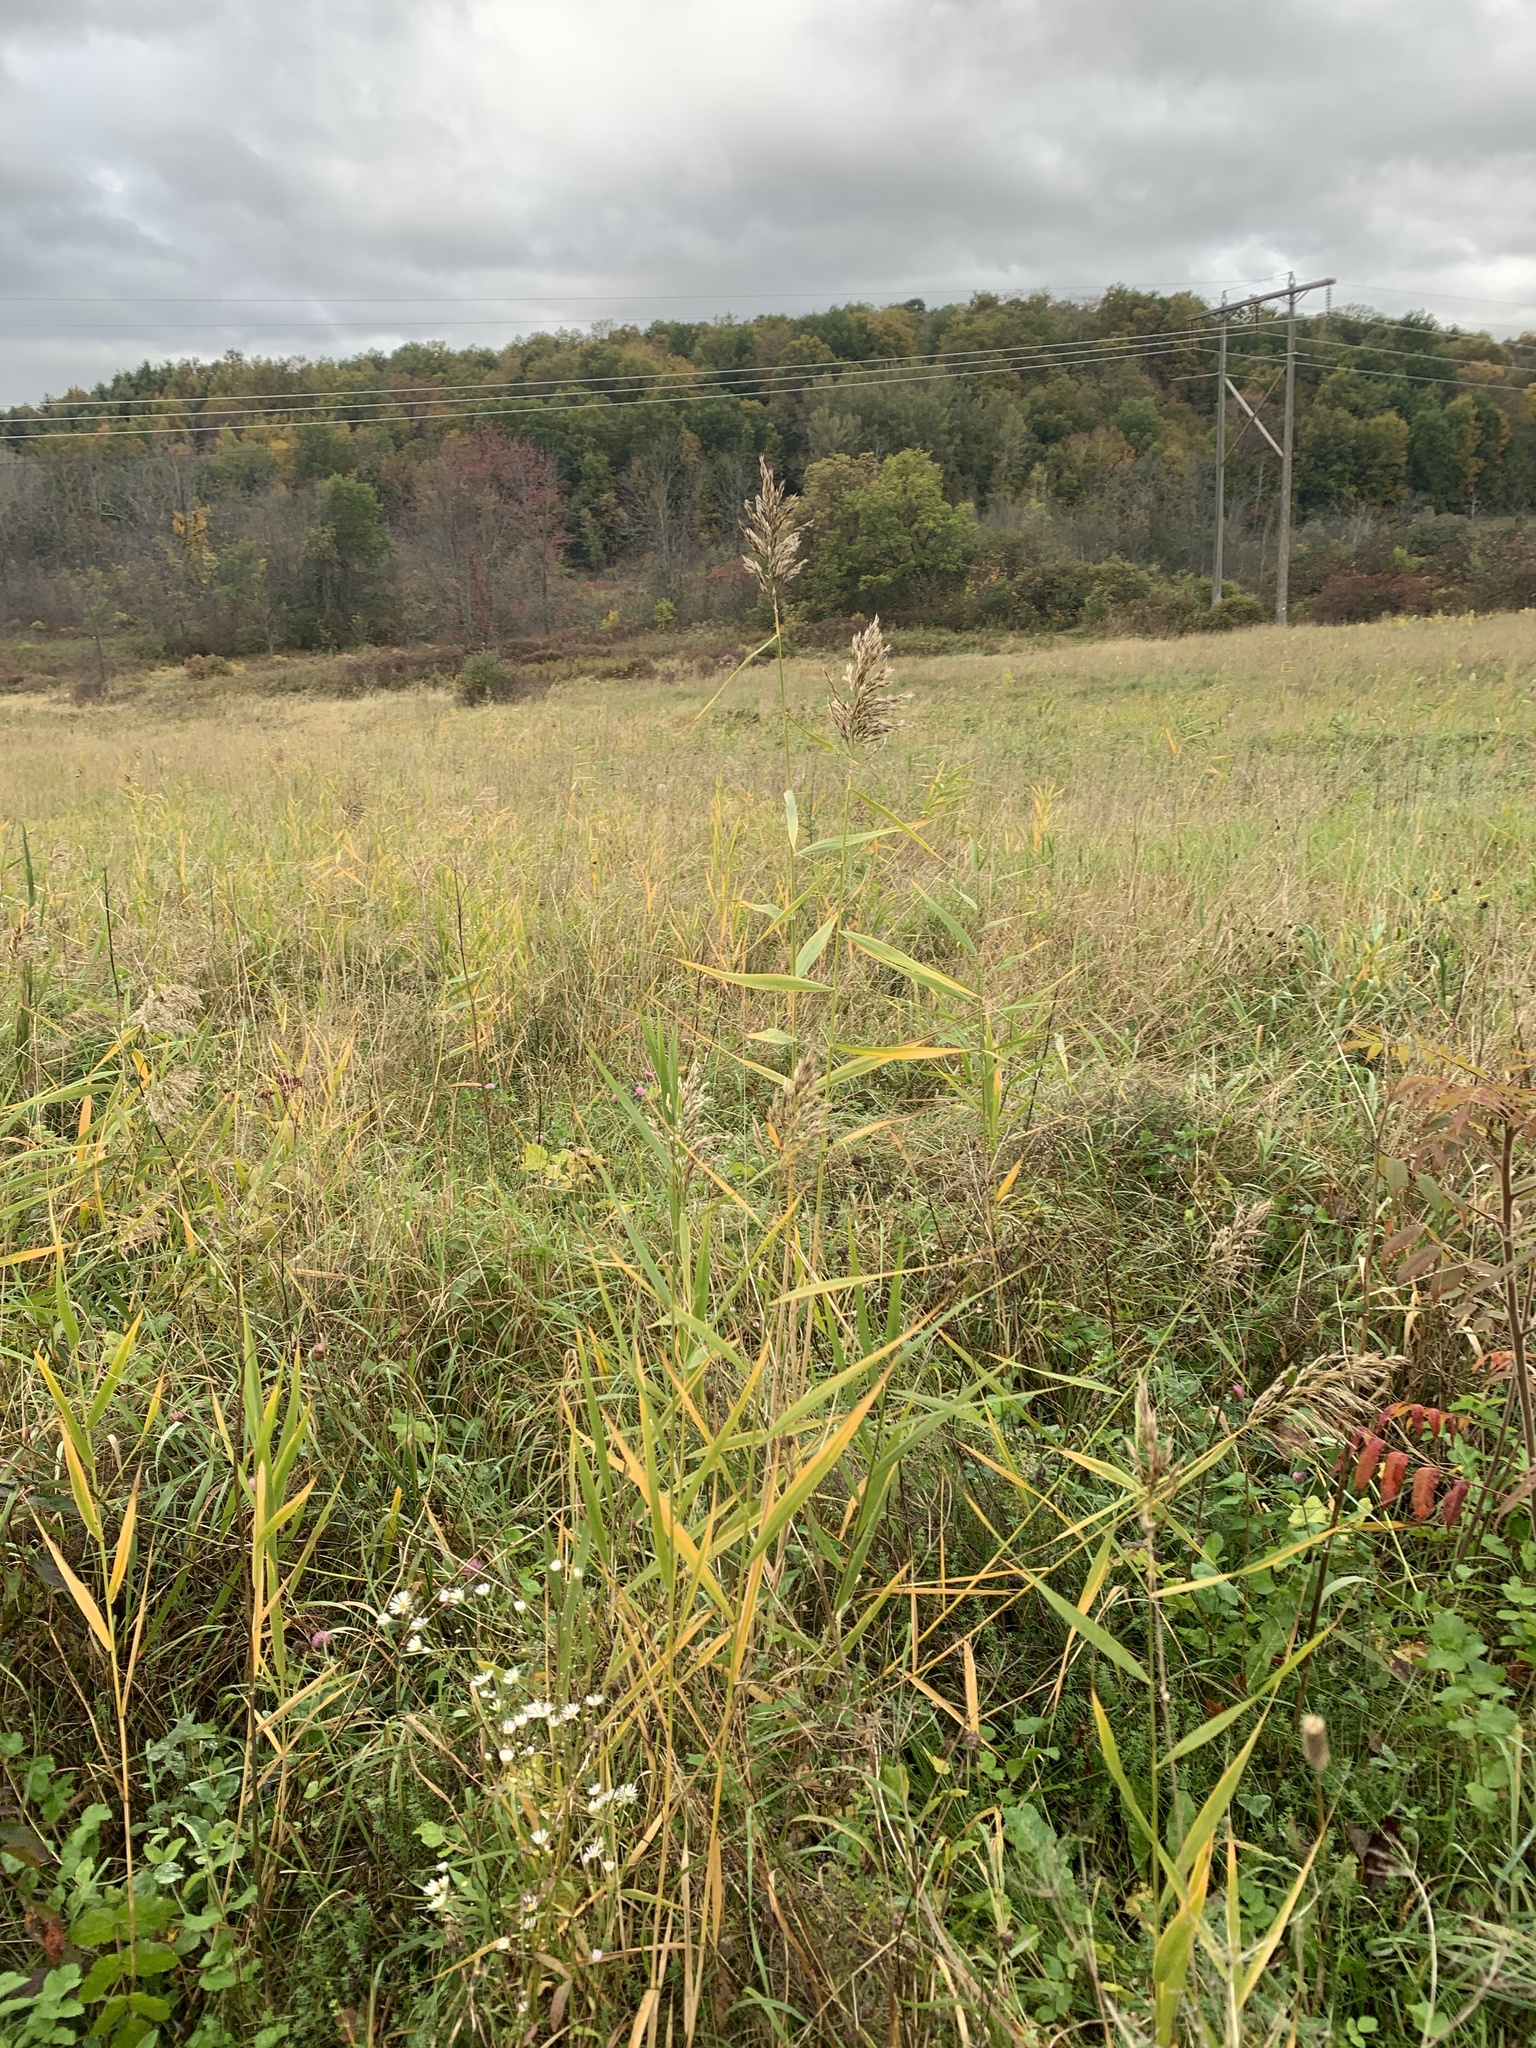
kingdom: Plantae
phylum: Tracheophyta
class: Liliopsida
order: Poales
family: Poaceae
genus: Phragmites
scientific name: Phragmites australis
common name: Common reed
